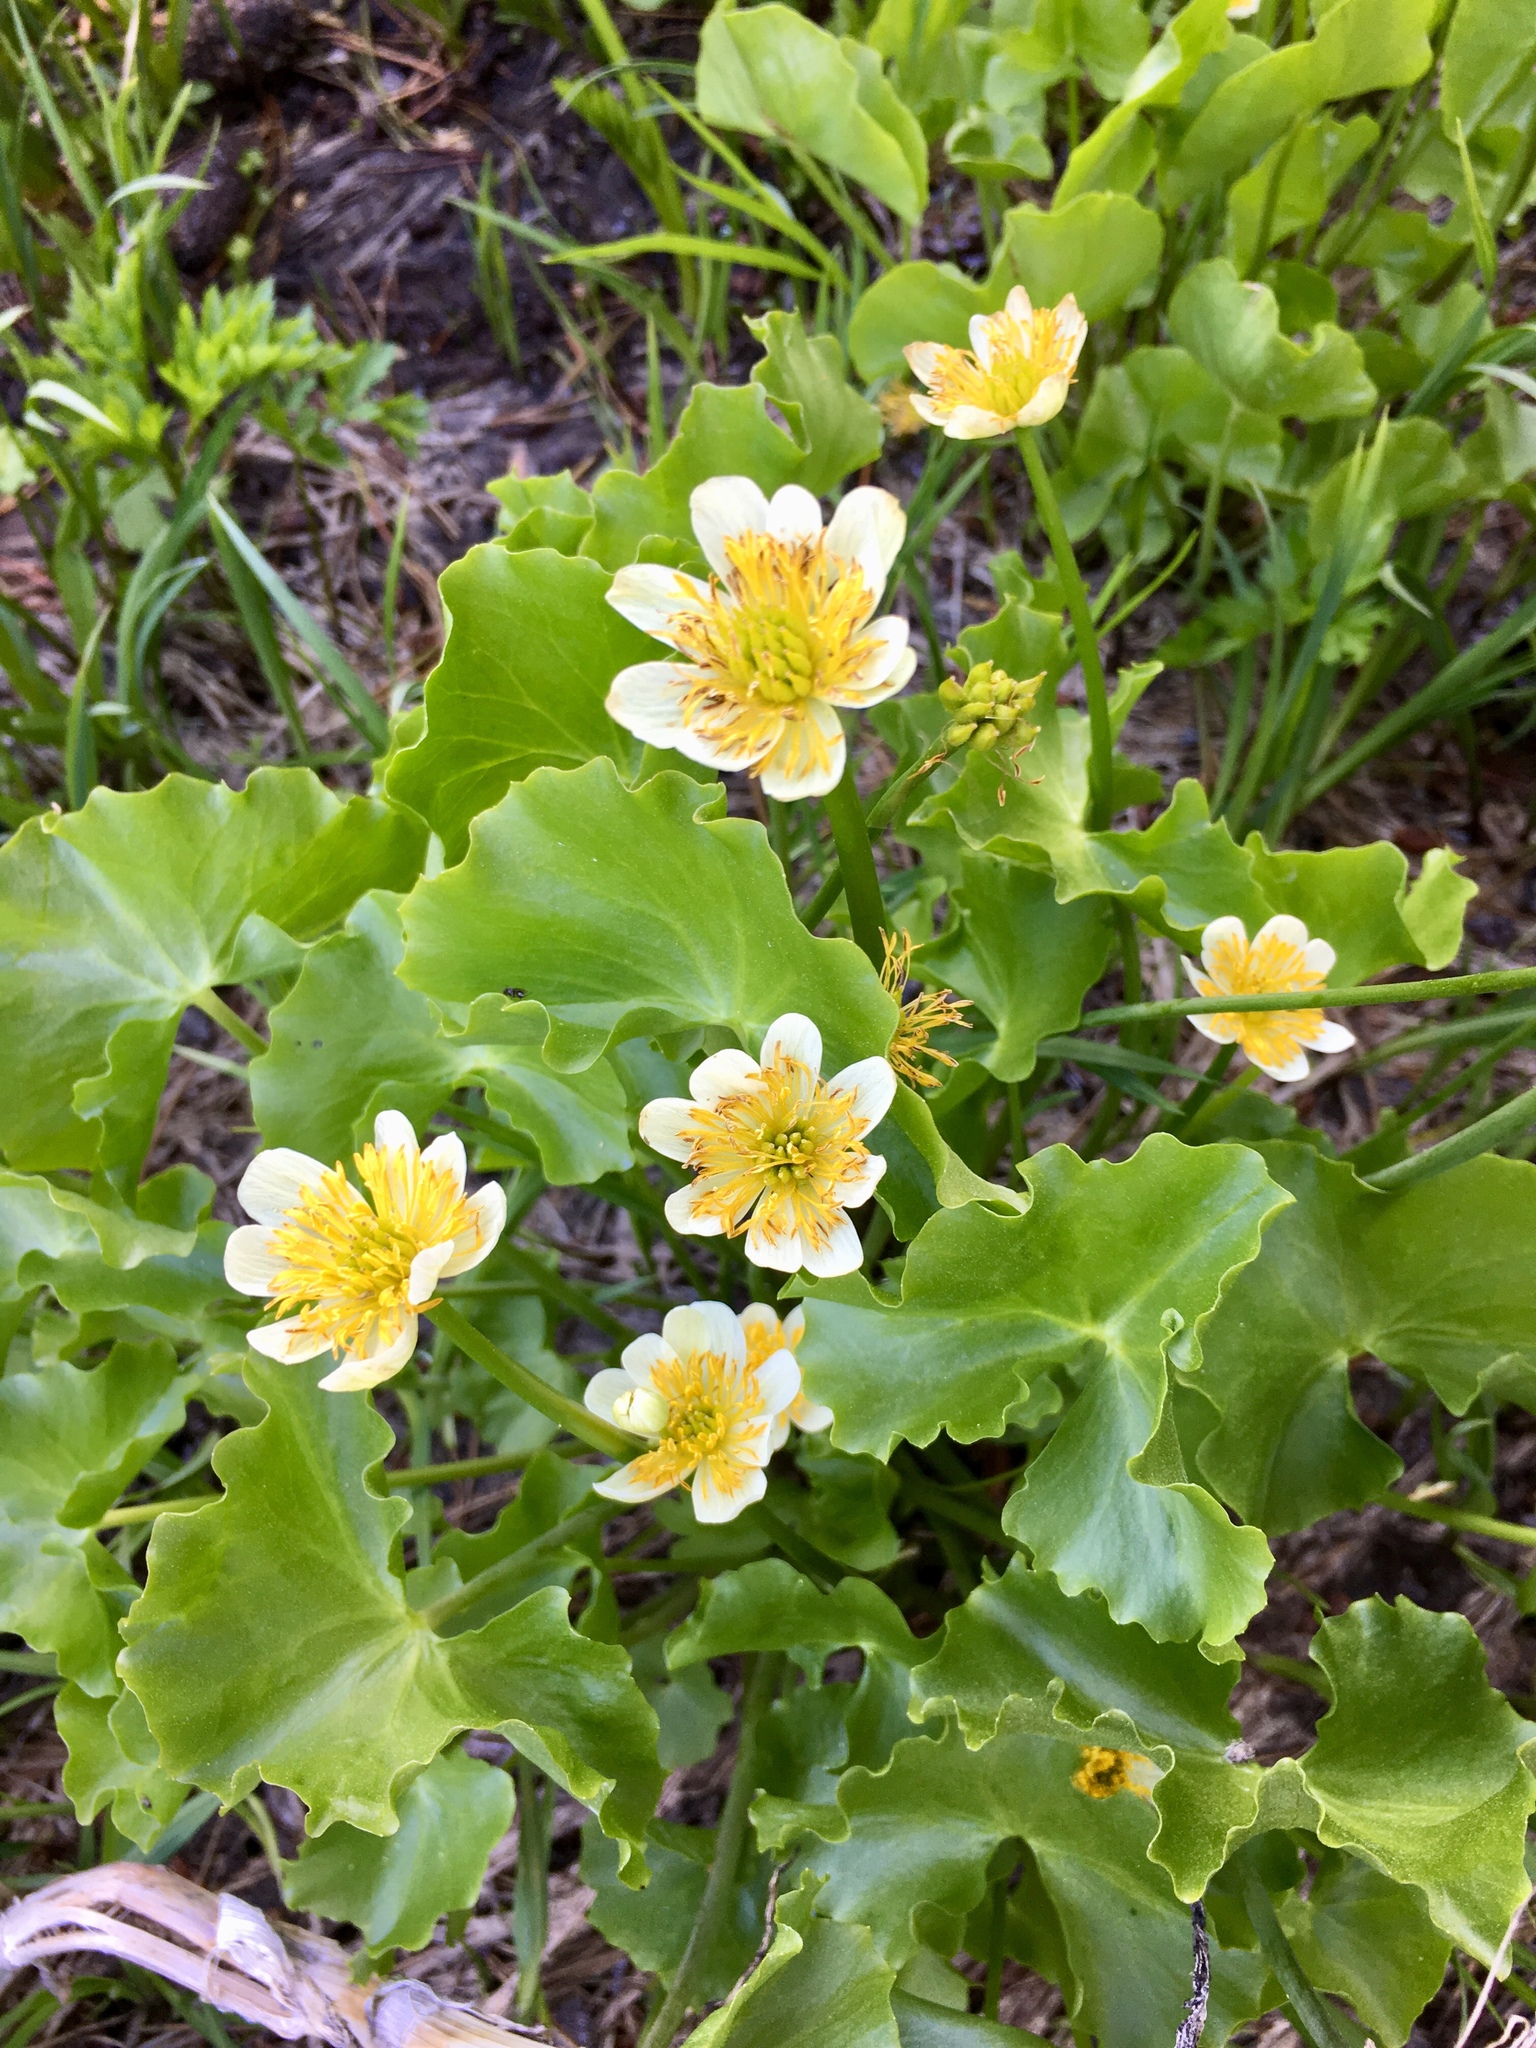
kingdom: Plantae
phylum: Tracheophyta
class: Magnoliopsida
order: Ranunculales
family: Ranunculaceae
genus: Caltha
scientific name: Caltha leptosepala
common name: Elkslip
